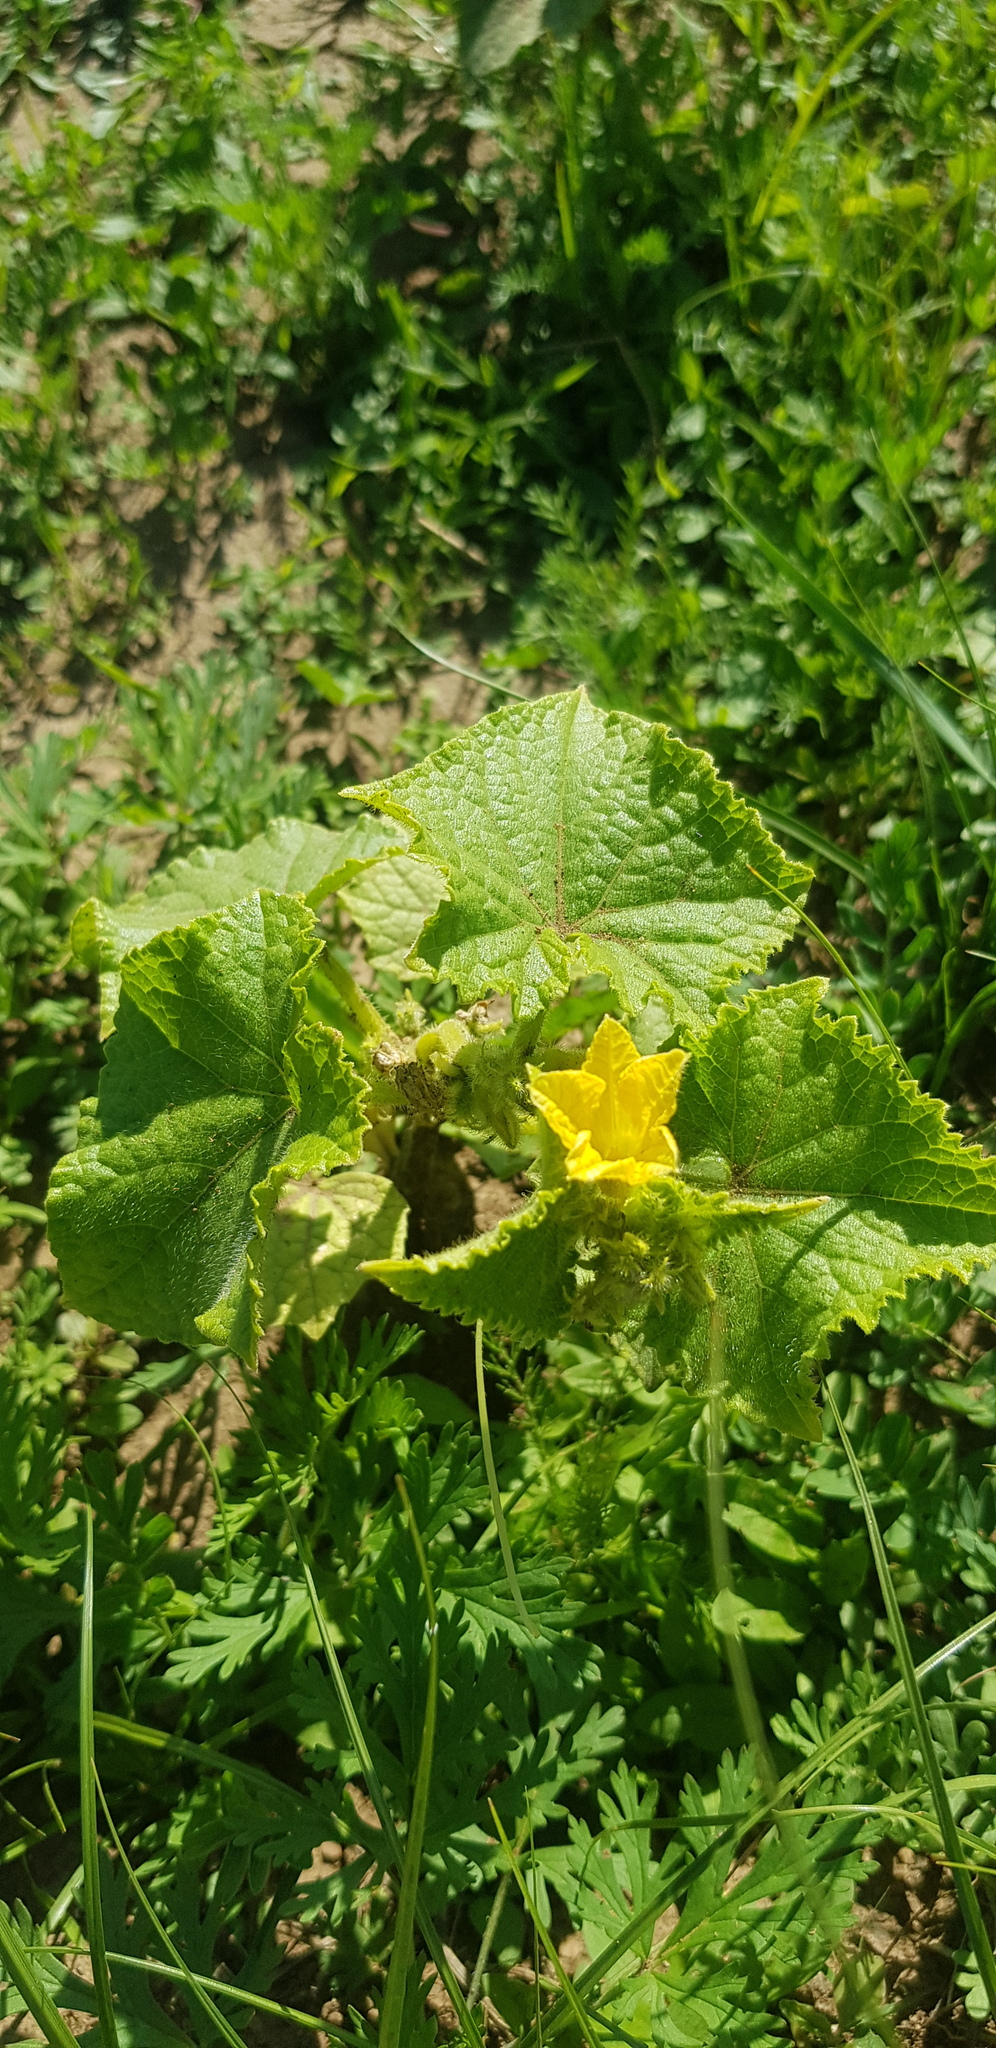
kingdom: Plantae
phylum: Tracheophyta
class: Magnoliopsida
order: Cucurbitales
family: Cucurbitaceae
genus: Cucumis
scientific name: Cucumis sativus
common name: Cucumber
